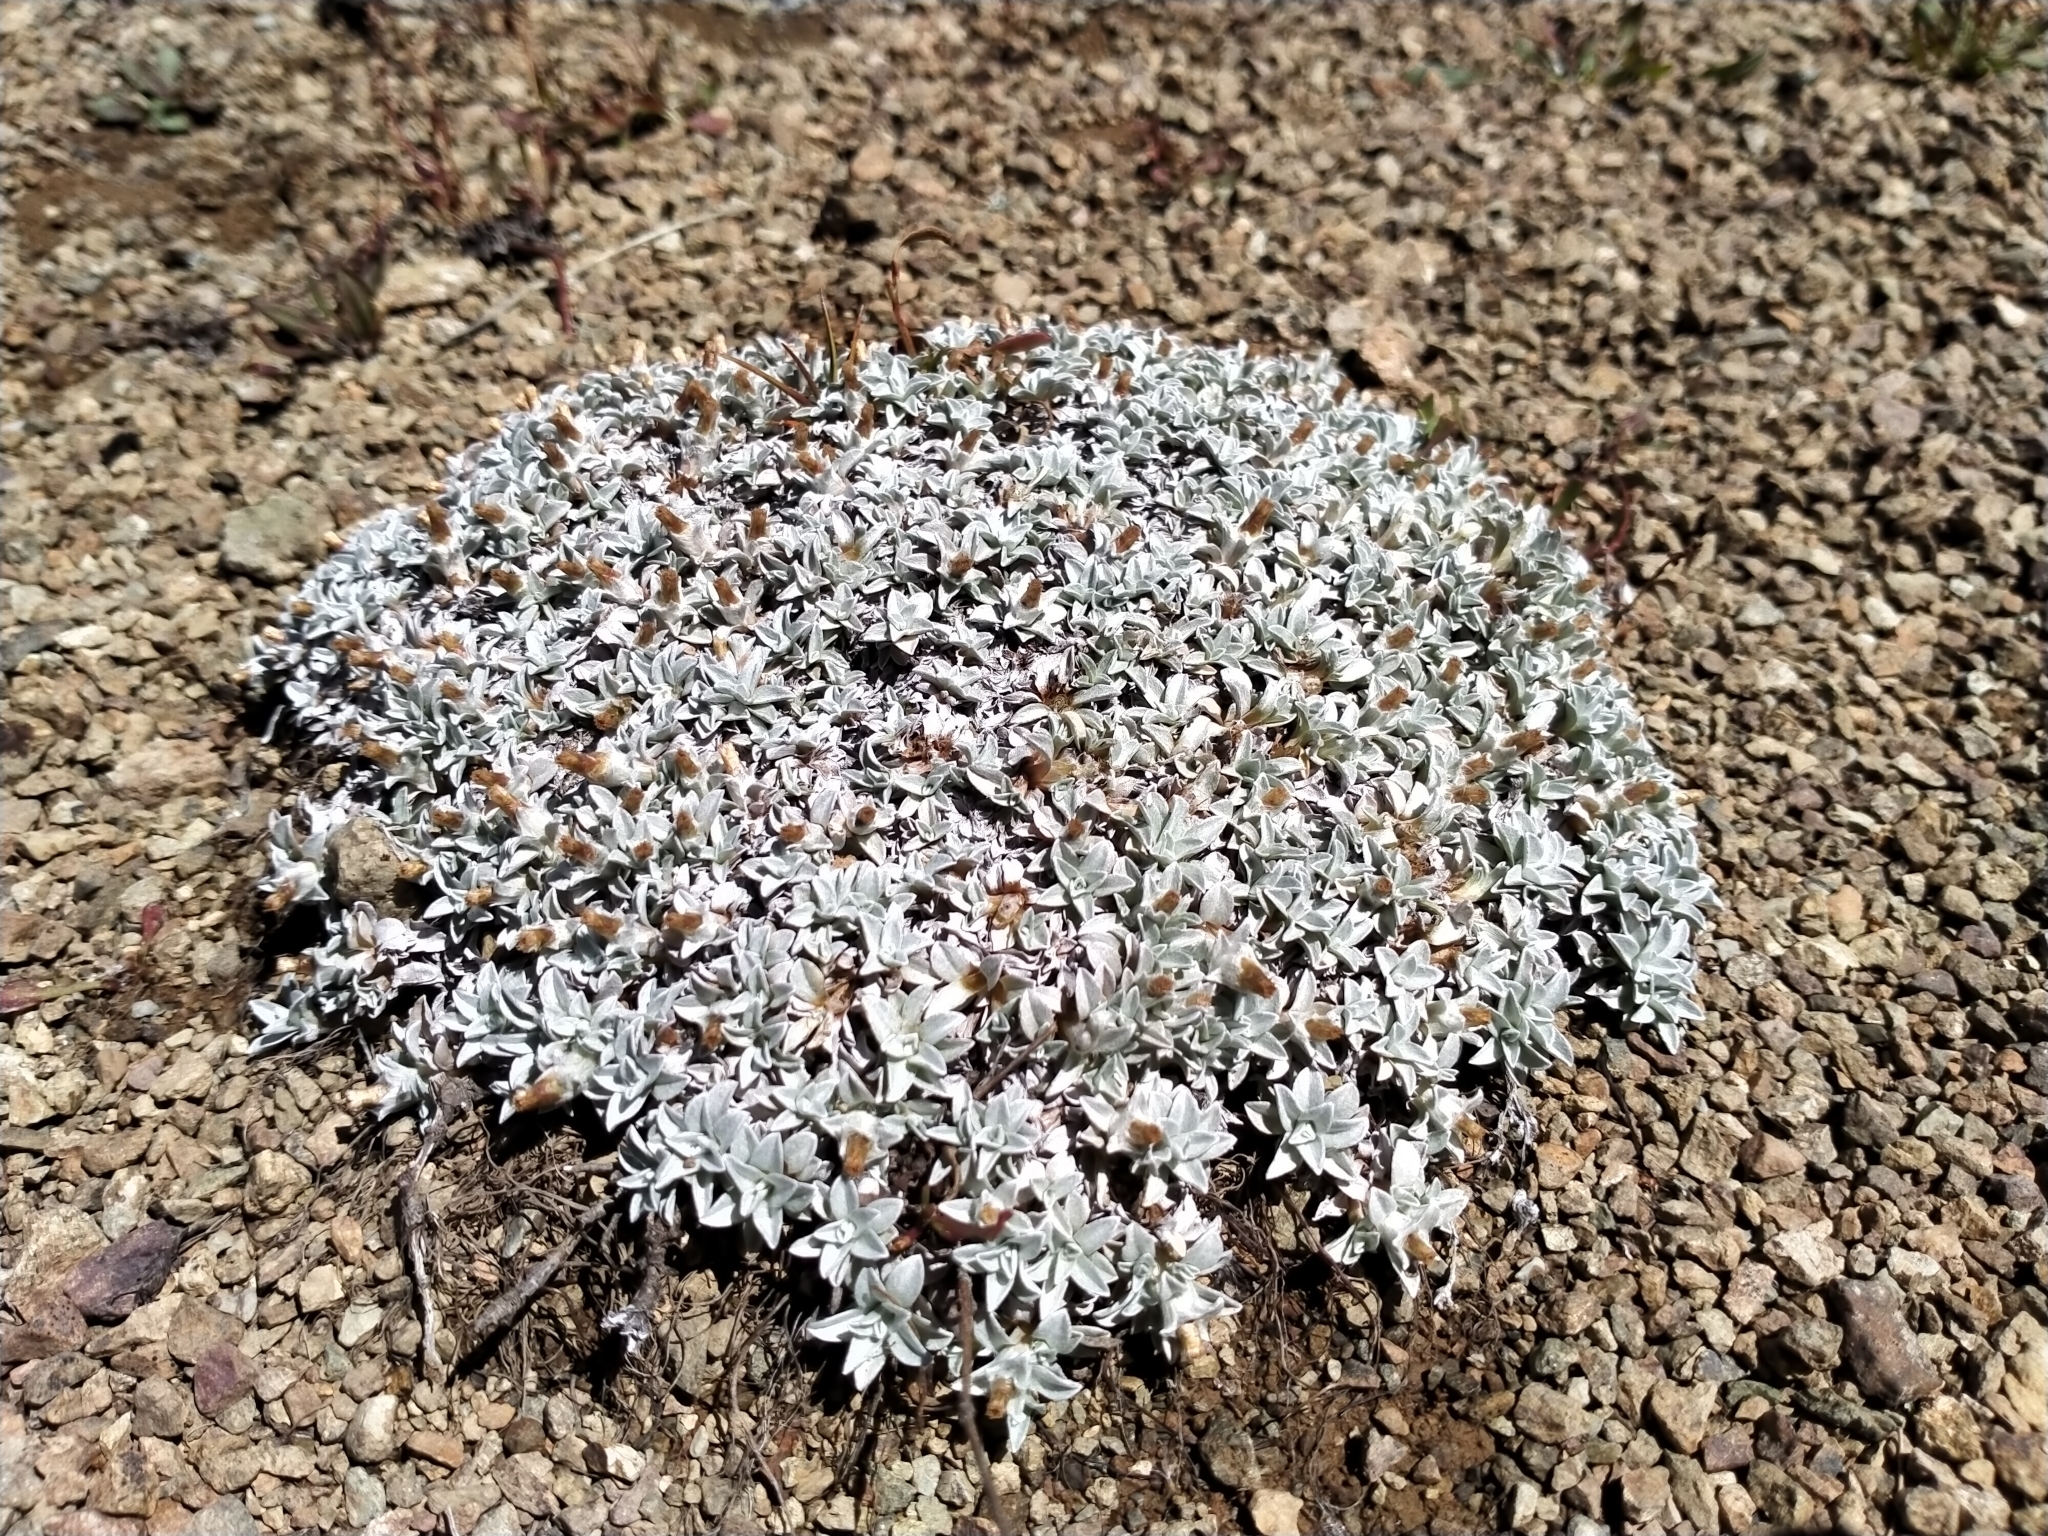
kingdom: Plantae
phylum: Tracheophyta
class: Magnoliopsida
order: Asterales
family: Asteraceae
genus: Argyrotegium
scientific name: Argyrotegium mackayi
